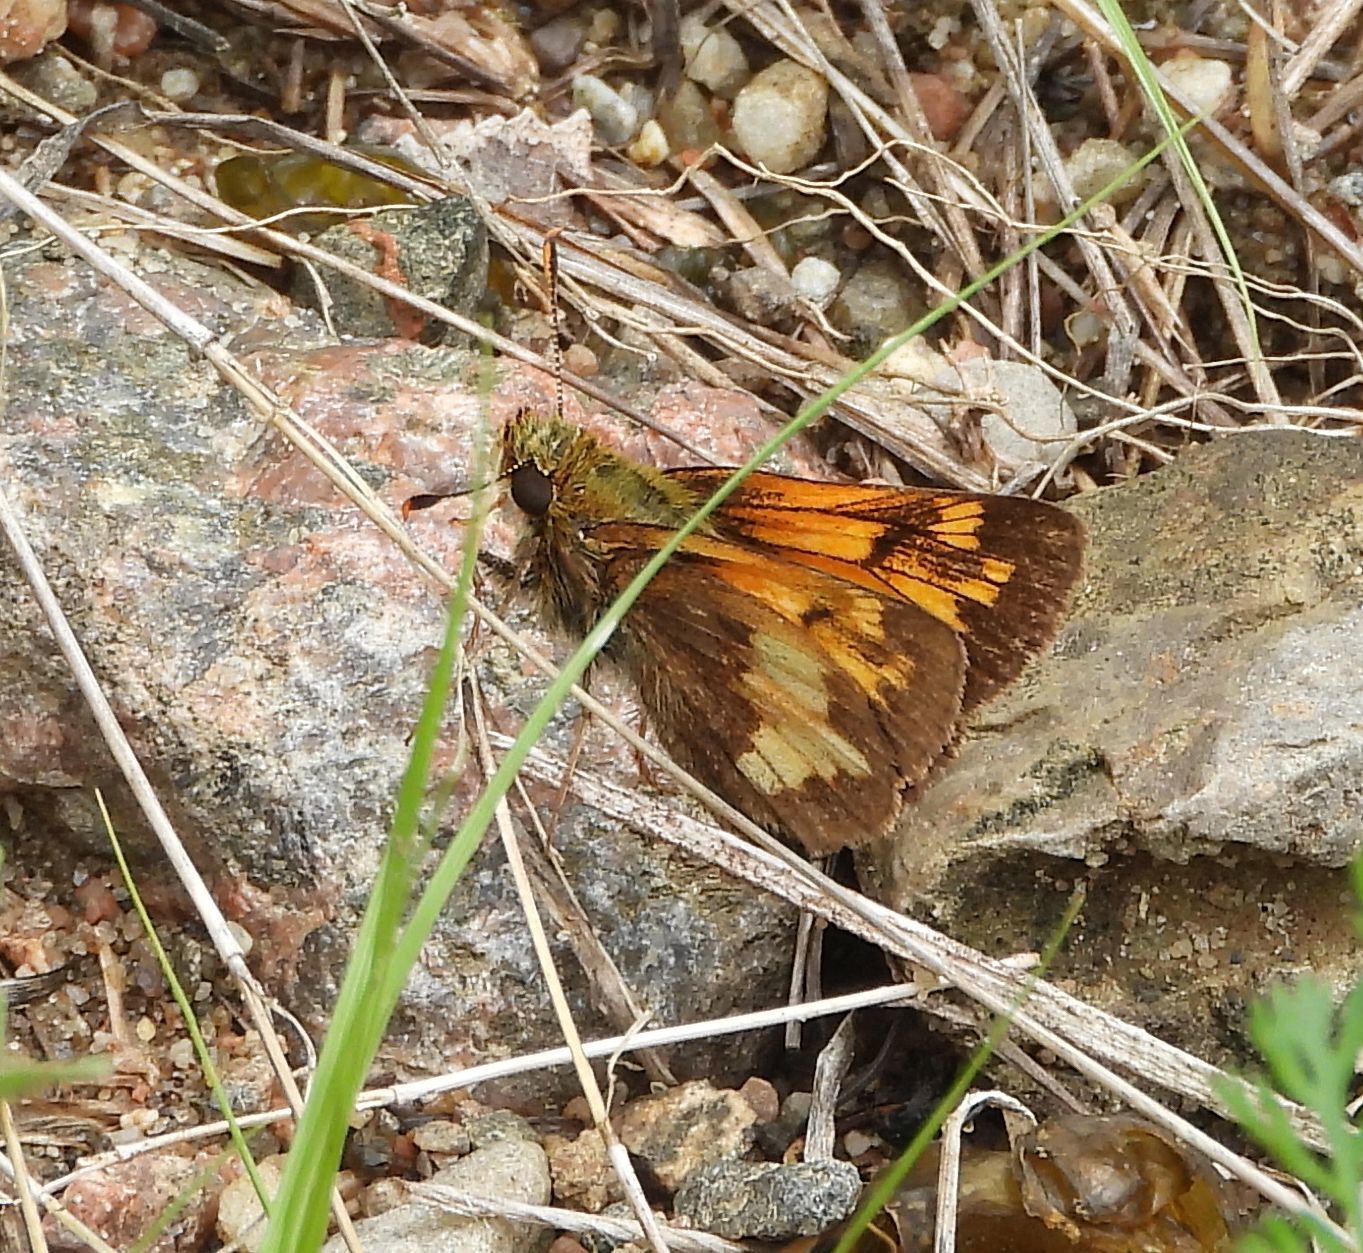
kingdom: Animalia
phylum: Arthropoda
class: Insecta
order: Lepidoptera
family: Hesperiidae
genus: Lon
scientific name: Lon hobomok
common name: Hobomok skipper
